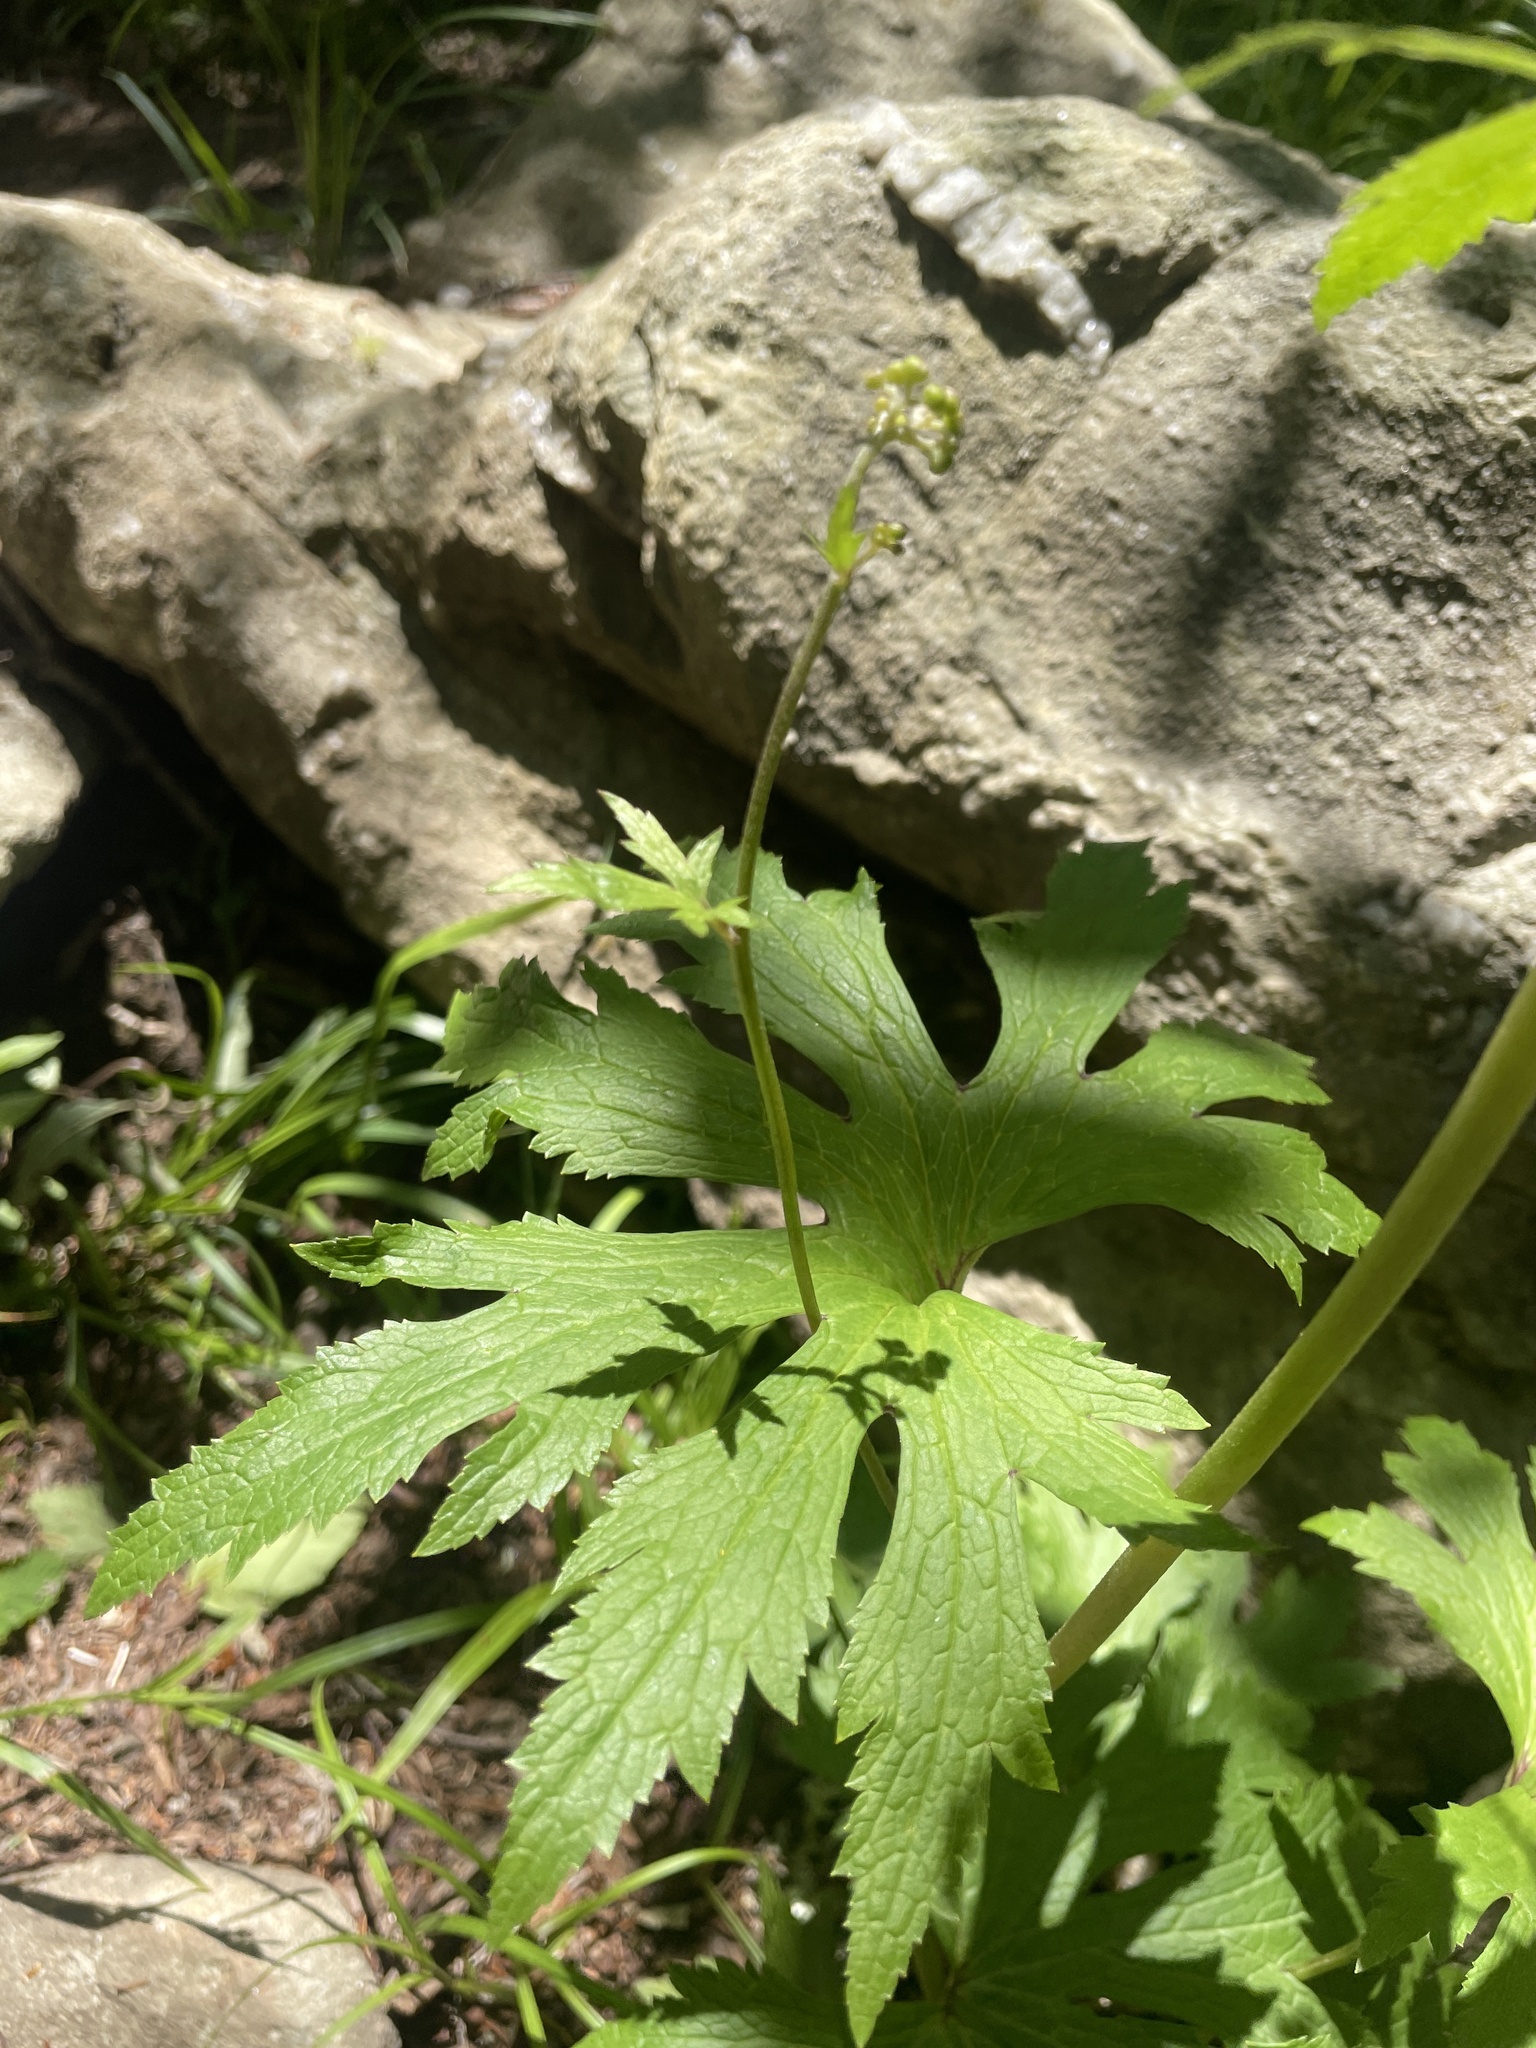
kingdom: Plantae
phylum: Tracheophyta
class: Magnoliopsida
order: Ranunculales
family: Ranunculaceae
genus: Trautvetteria
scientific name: Trautvetteria carolinensis
